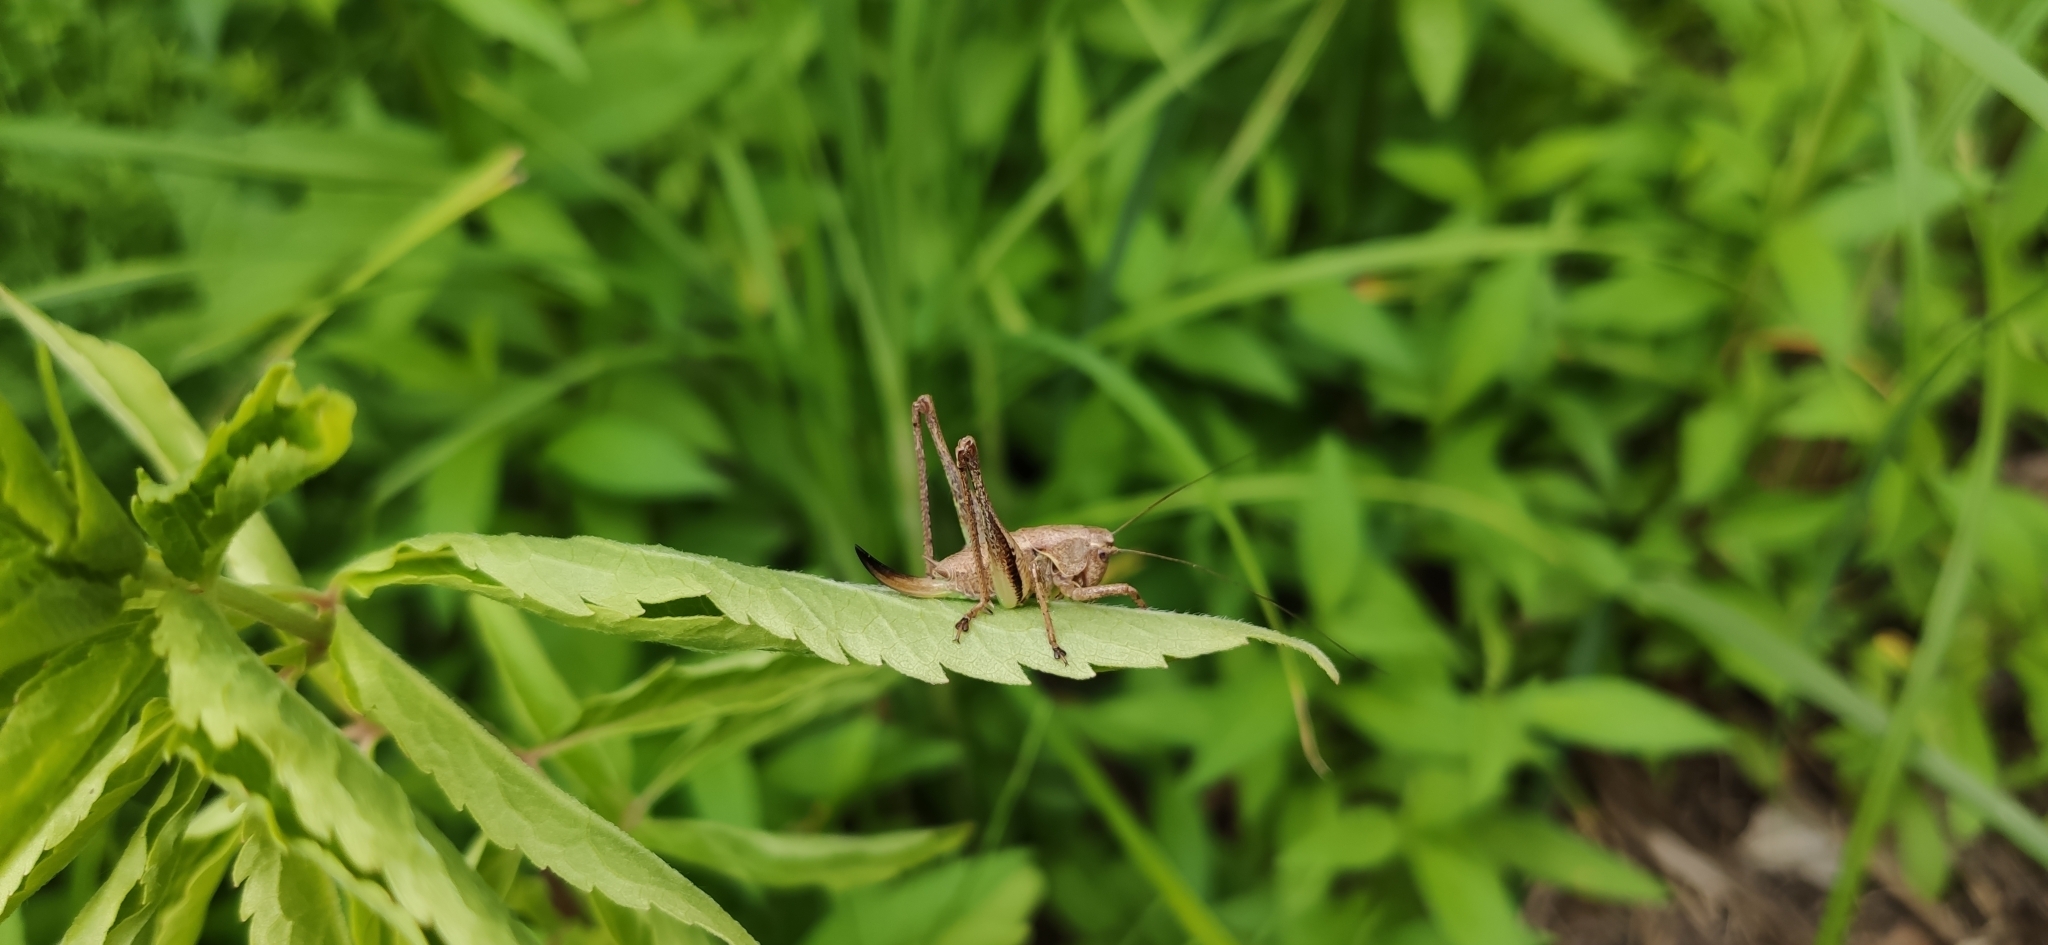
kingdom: Animalia
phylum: Arthropoda
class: Insecta
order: Orthoptera
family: Tettigoniidae
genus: Pholidoptera
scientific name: Pholidoptera griseoaptera
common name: Dark bush-cricket
